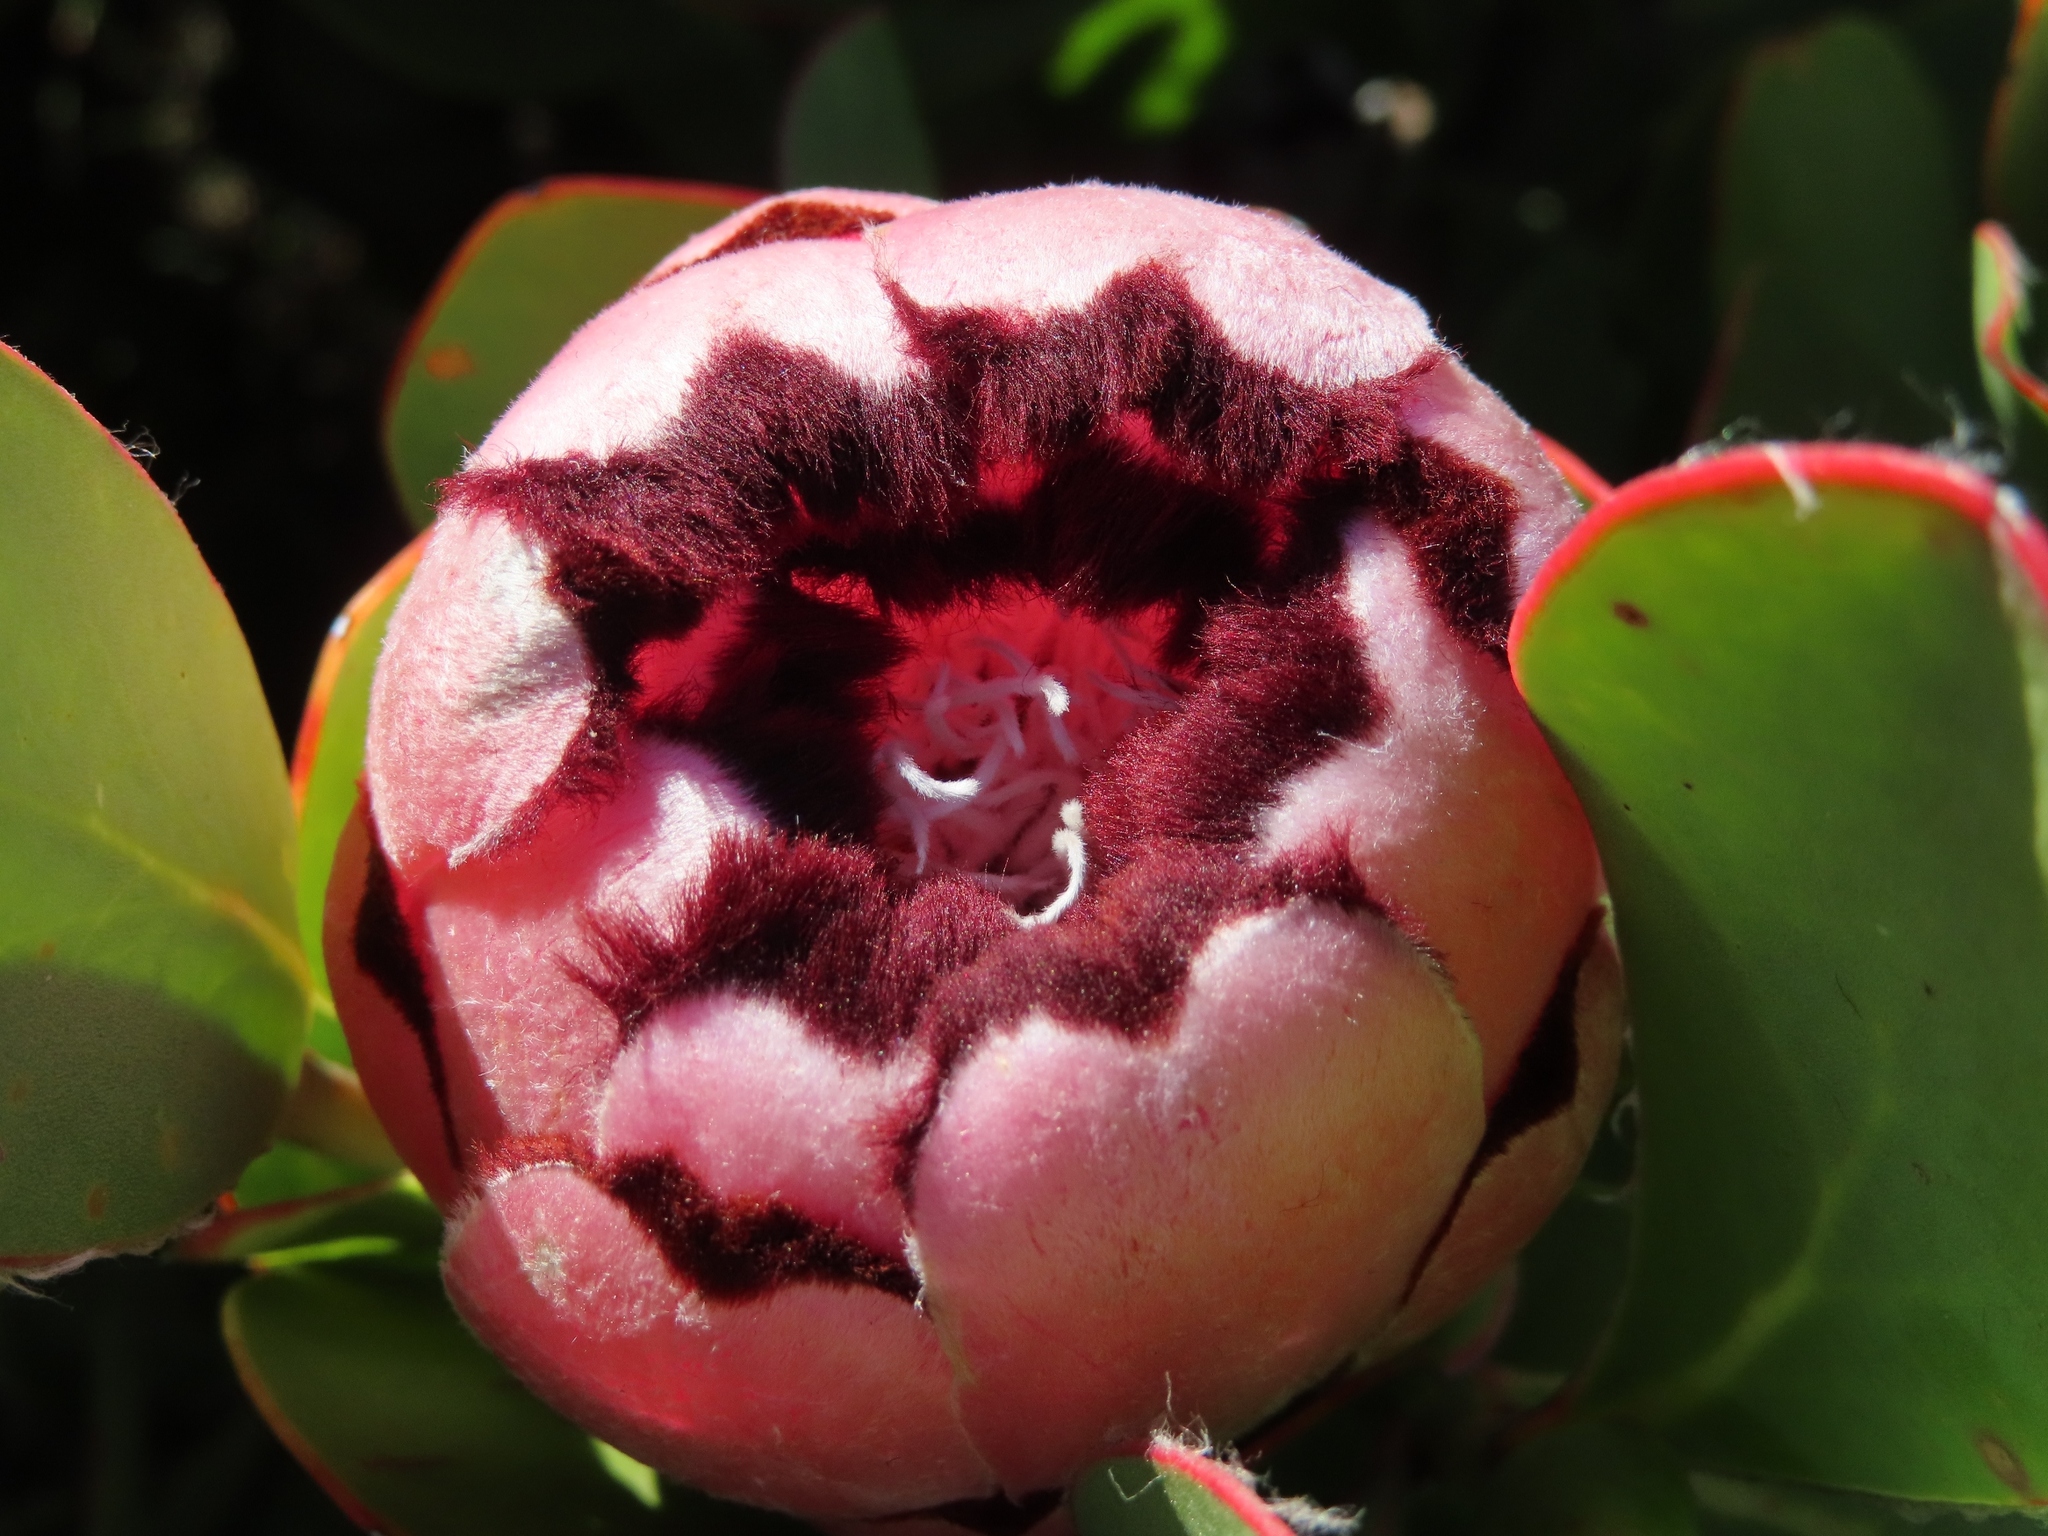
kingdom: Plantae
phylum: Tracheophyta
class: Magnoliopsida
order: Proteales
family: Proteaceae
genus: Protea
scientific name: Protea stokoei
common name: Pink sugarbush
